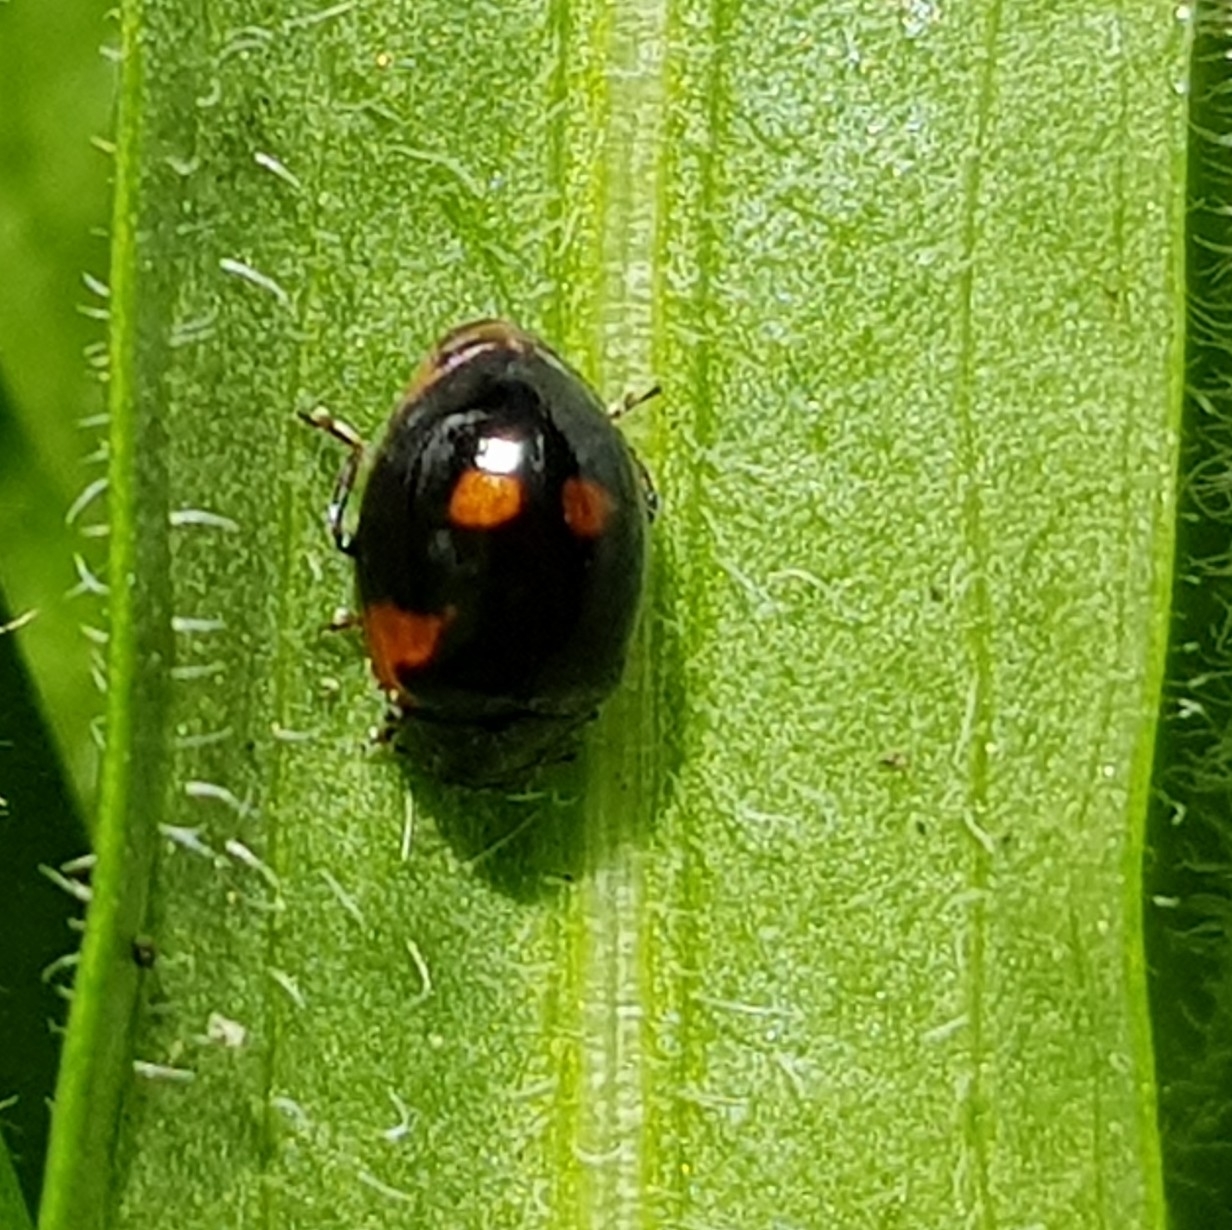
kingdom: Animalia
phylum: Arthropoda
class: Insecta
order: Coleoptera
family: Coccinellidae
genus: Adalia
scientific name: Adalia bipunctata
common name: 2-spot ladybird
